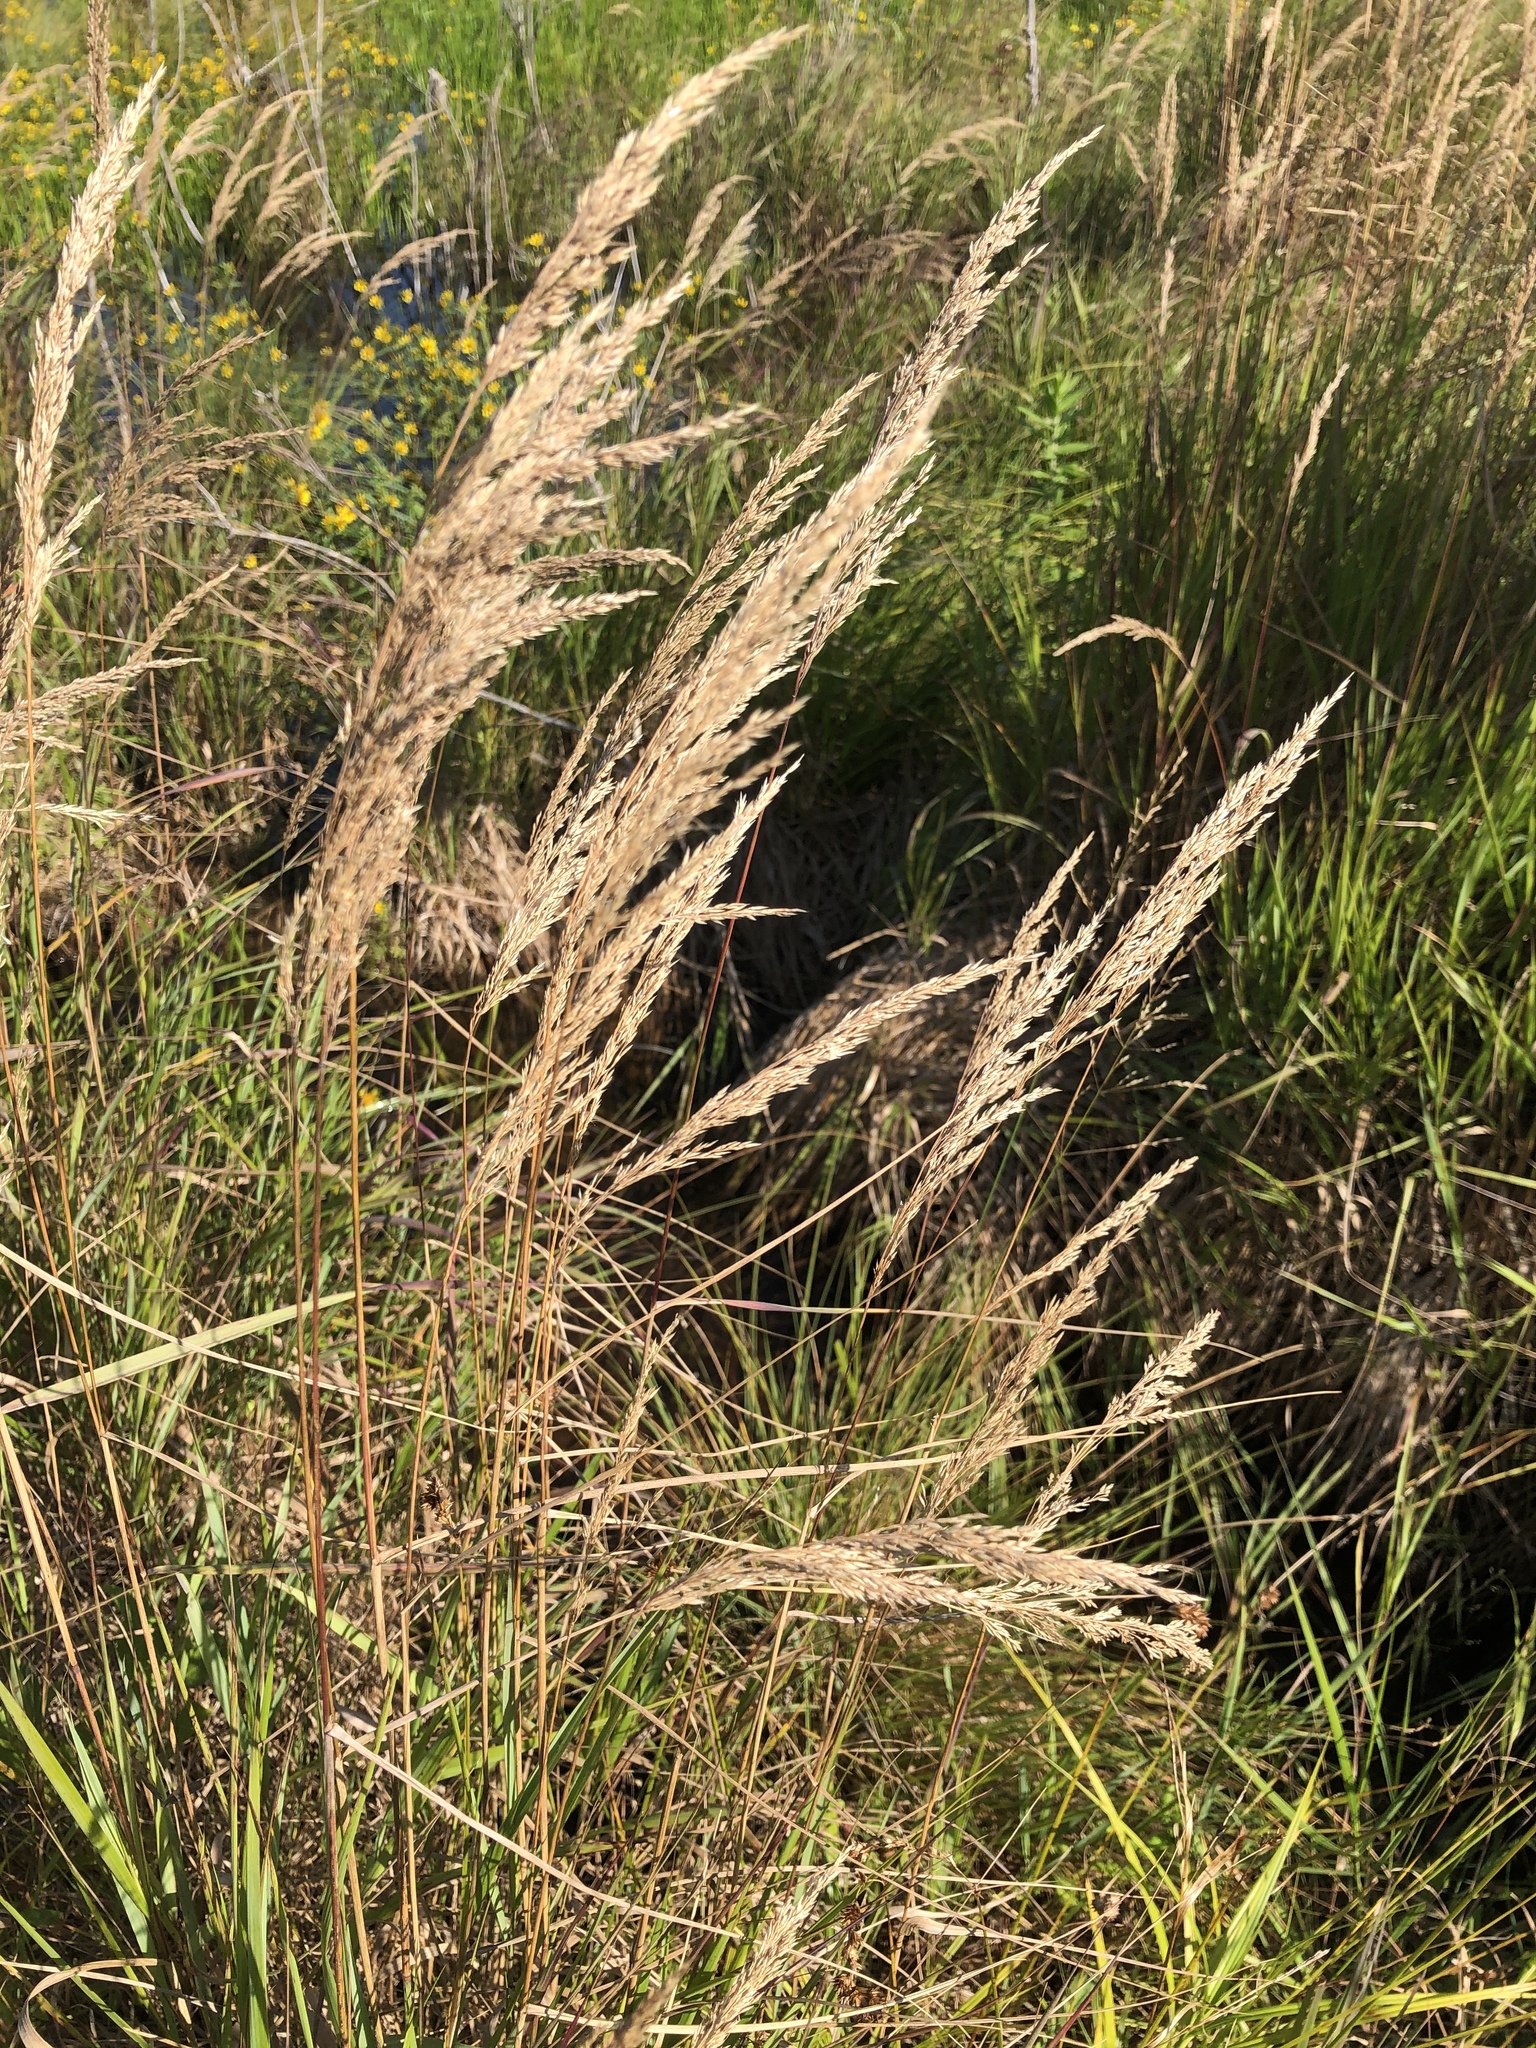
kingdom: Plantae
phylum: Tracheophyta
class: Liliopsida
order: Poales
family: Poaceae
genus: Calamagrostis
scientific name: Calamagrostis canadensis
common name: Canada bluejoint
